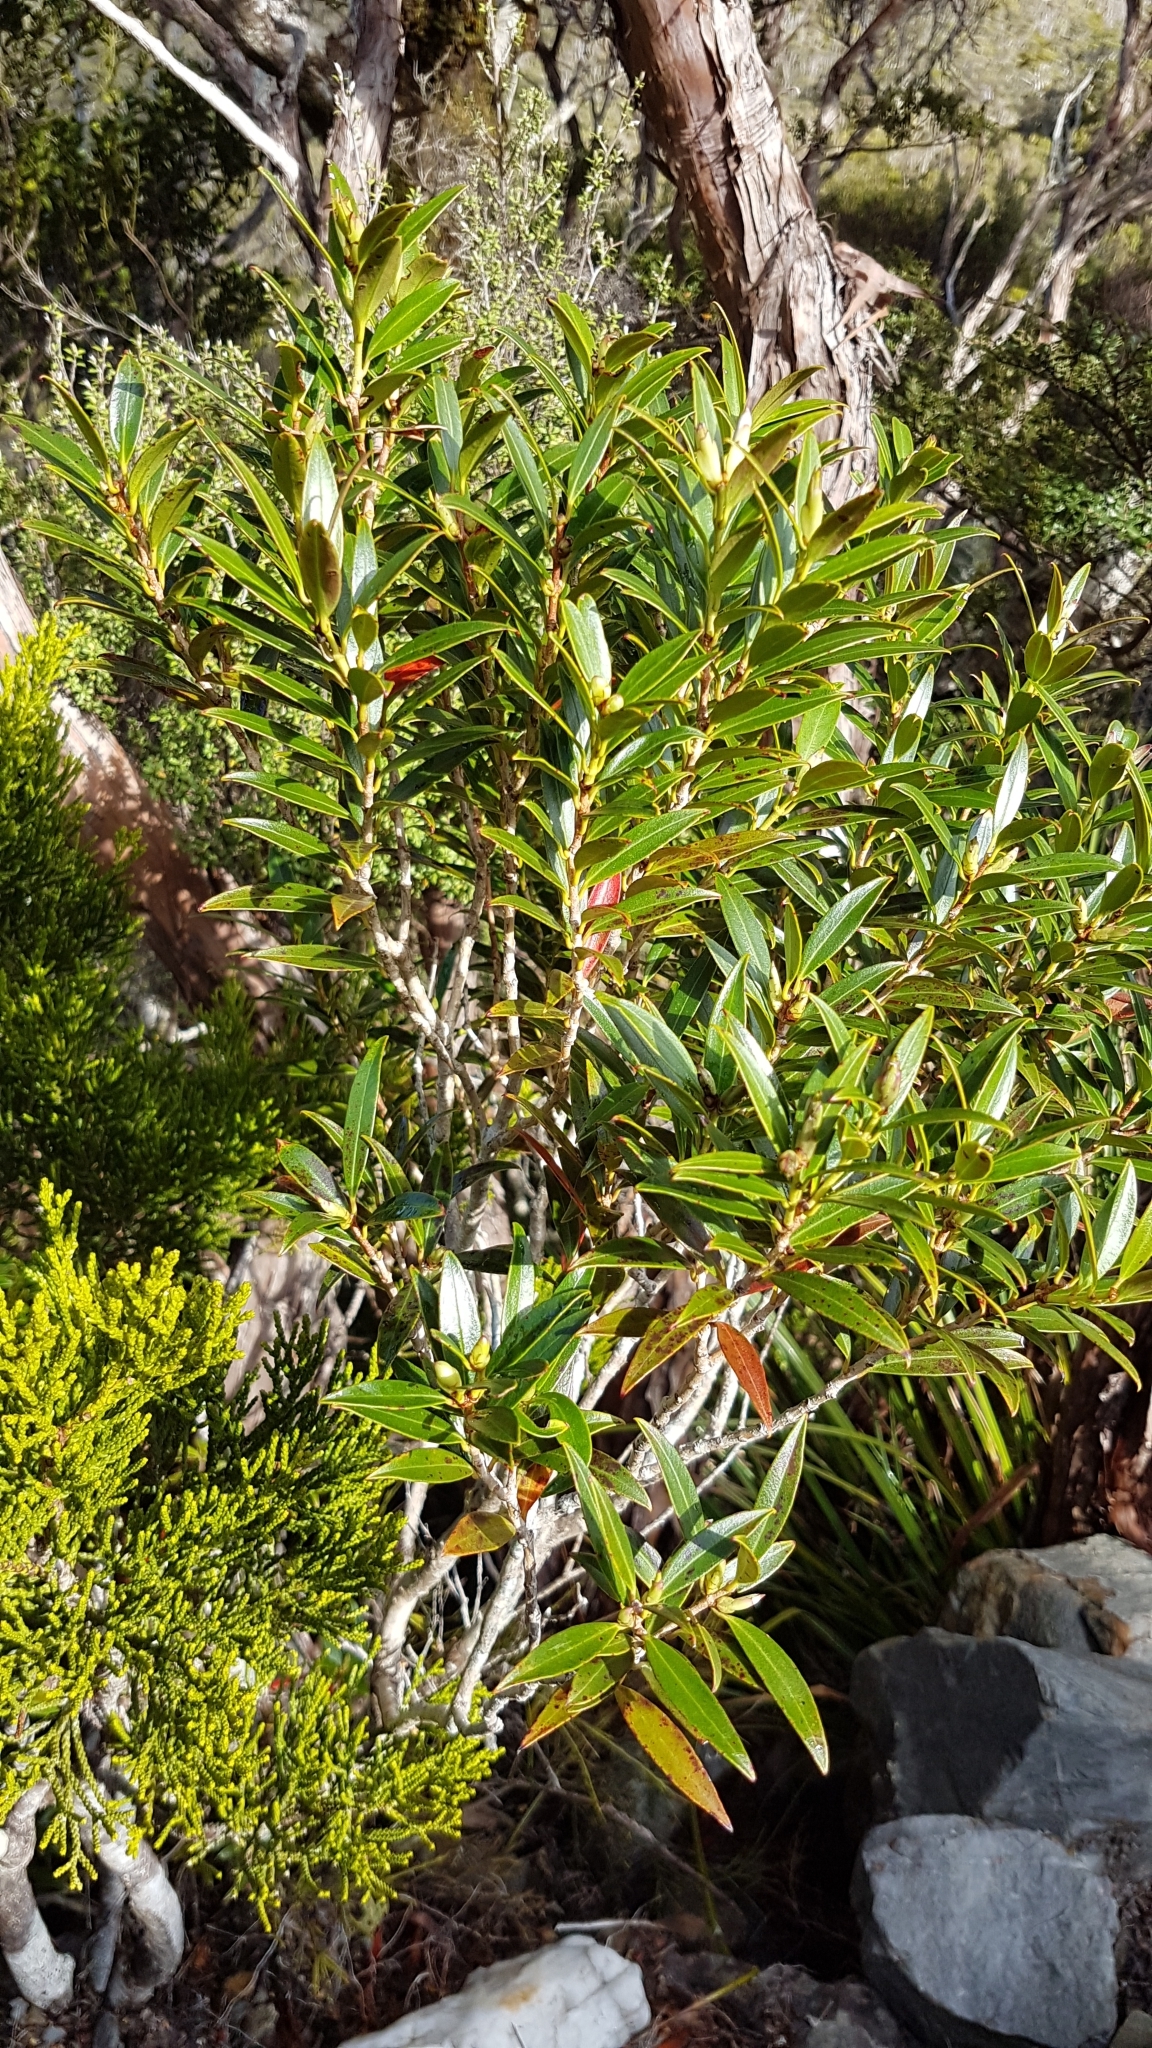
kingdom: Plantae
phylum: Tracheophyta
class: Magnoliopsida
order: Myrtales
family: Myrtaceae
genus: Metrosideros
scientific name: Metrosideros umbellata
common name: Southern rata
